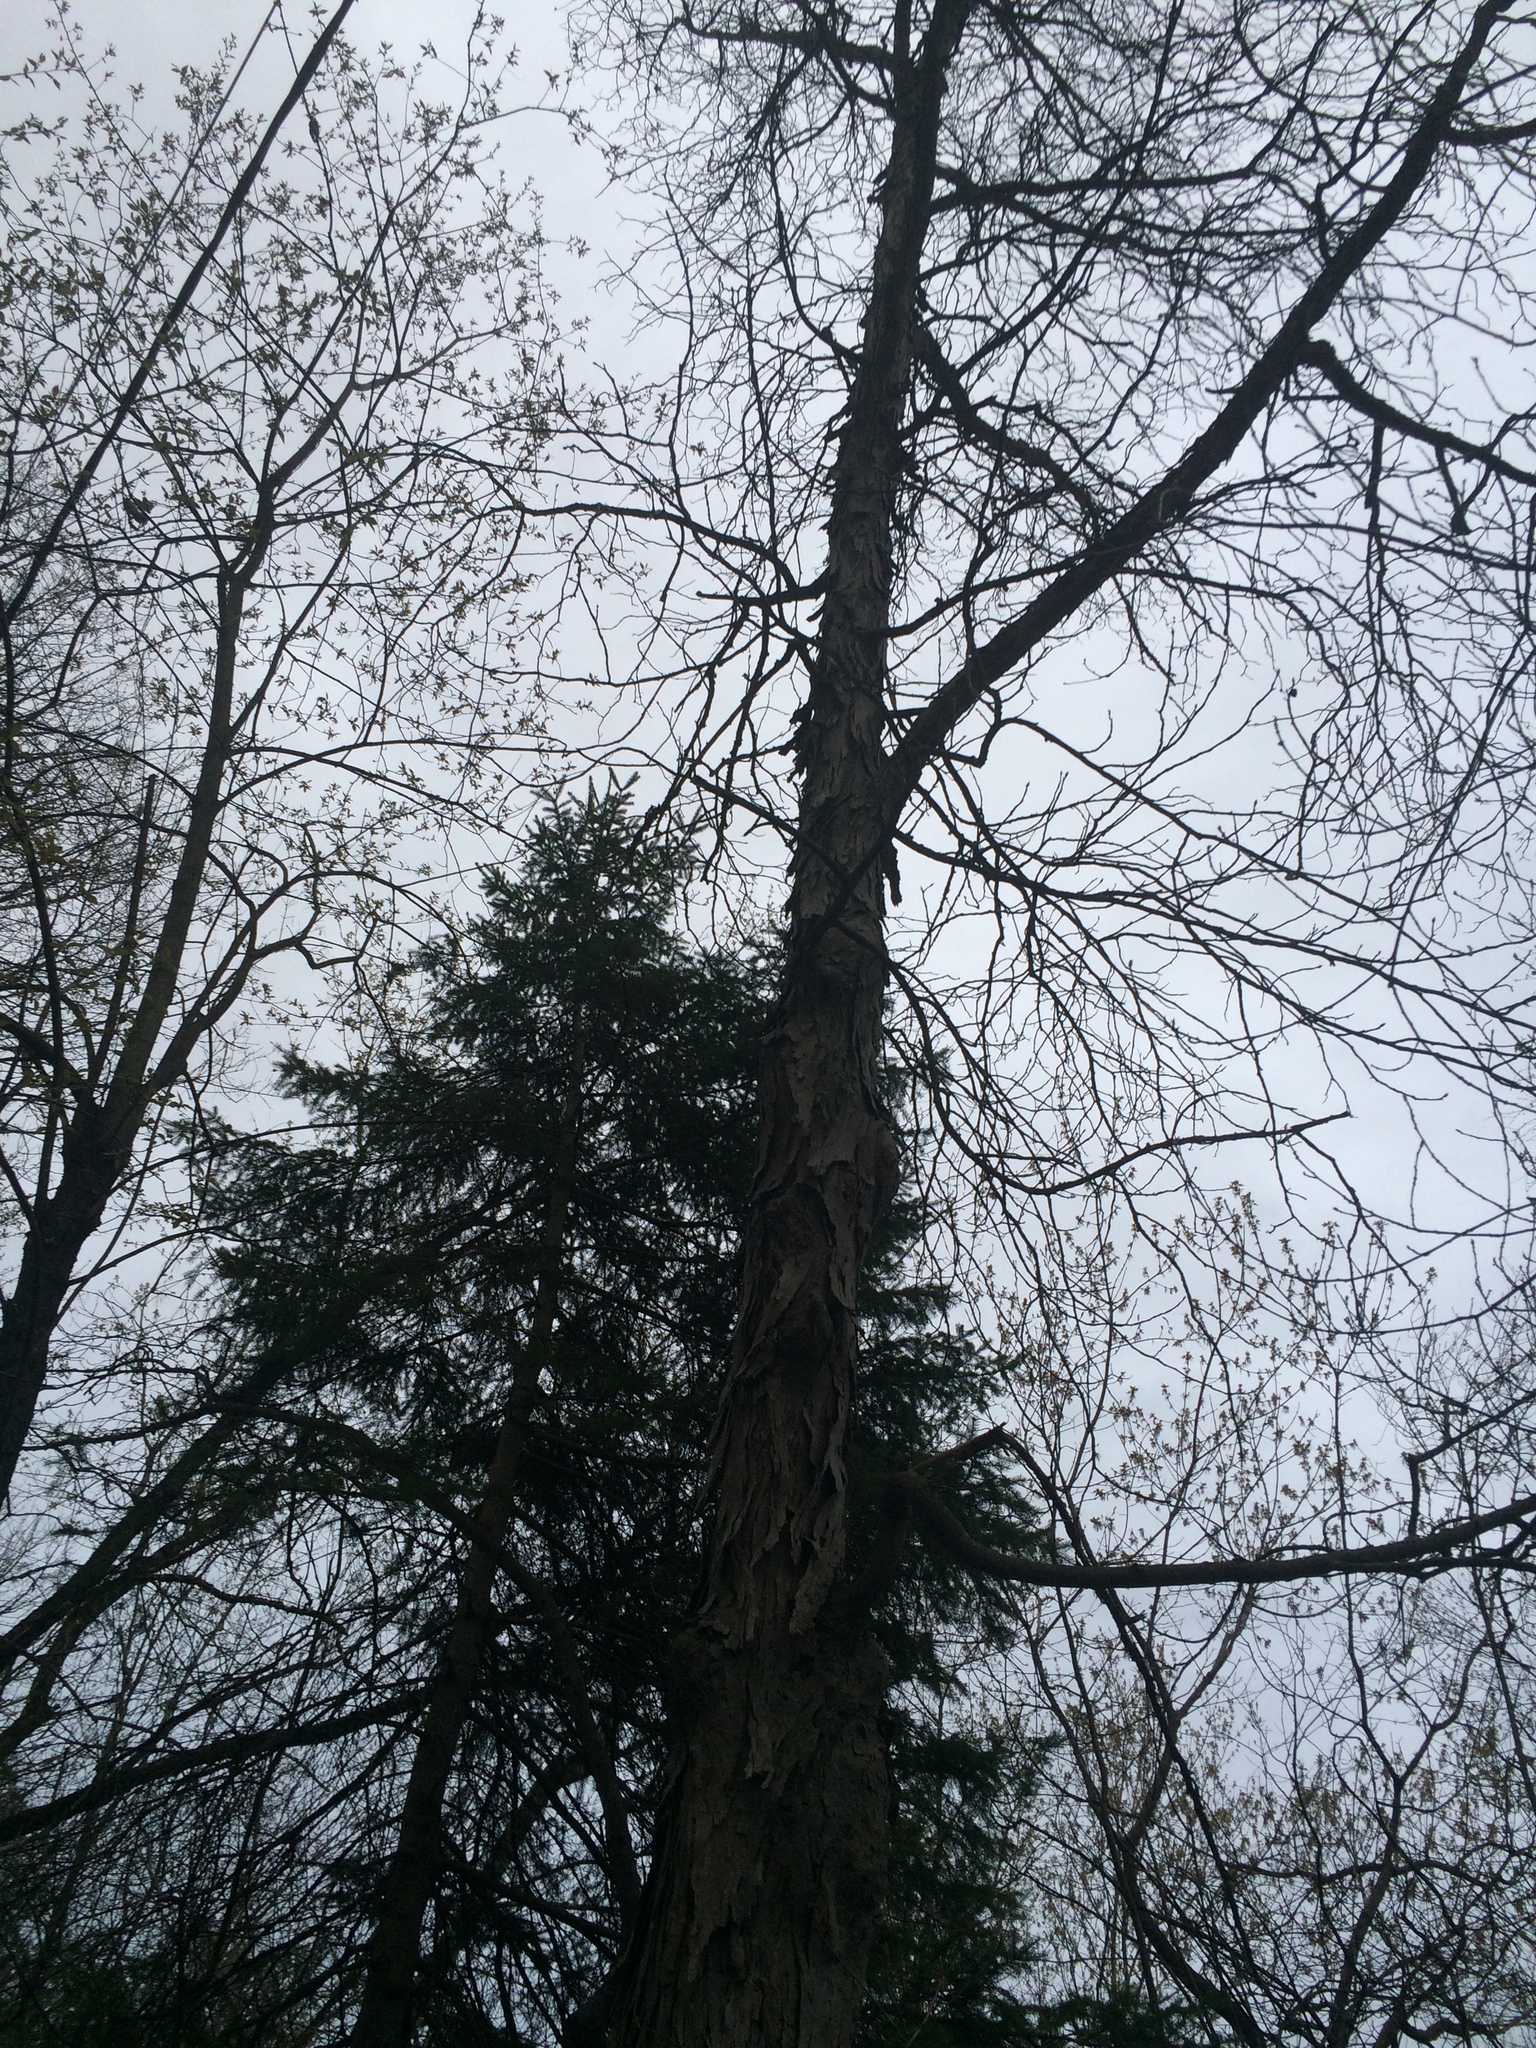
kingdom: Plantae
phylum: Tracheophyta
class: Magnoliopsida
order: Fagales
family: Juglandaceae
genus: Carya
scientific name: Carya ovata
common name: Shagbark hickory
